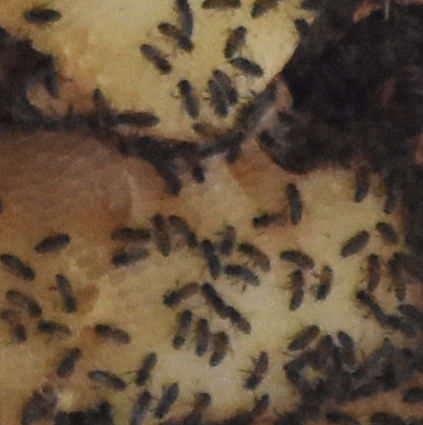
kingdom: Animalia
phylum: Arthropoda
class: Insecta
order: Hymenoptera
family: Apidae
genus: Apis
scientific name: Apis mellifera
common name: Honey bee
